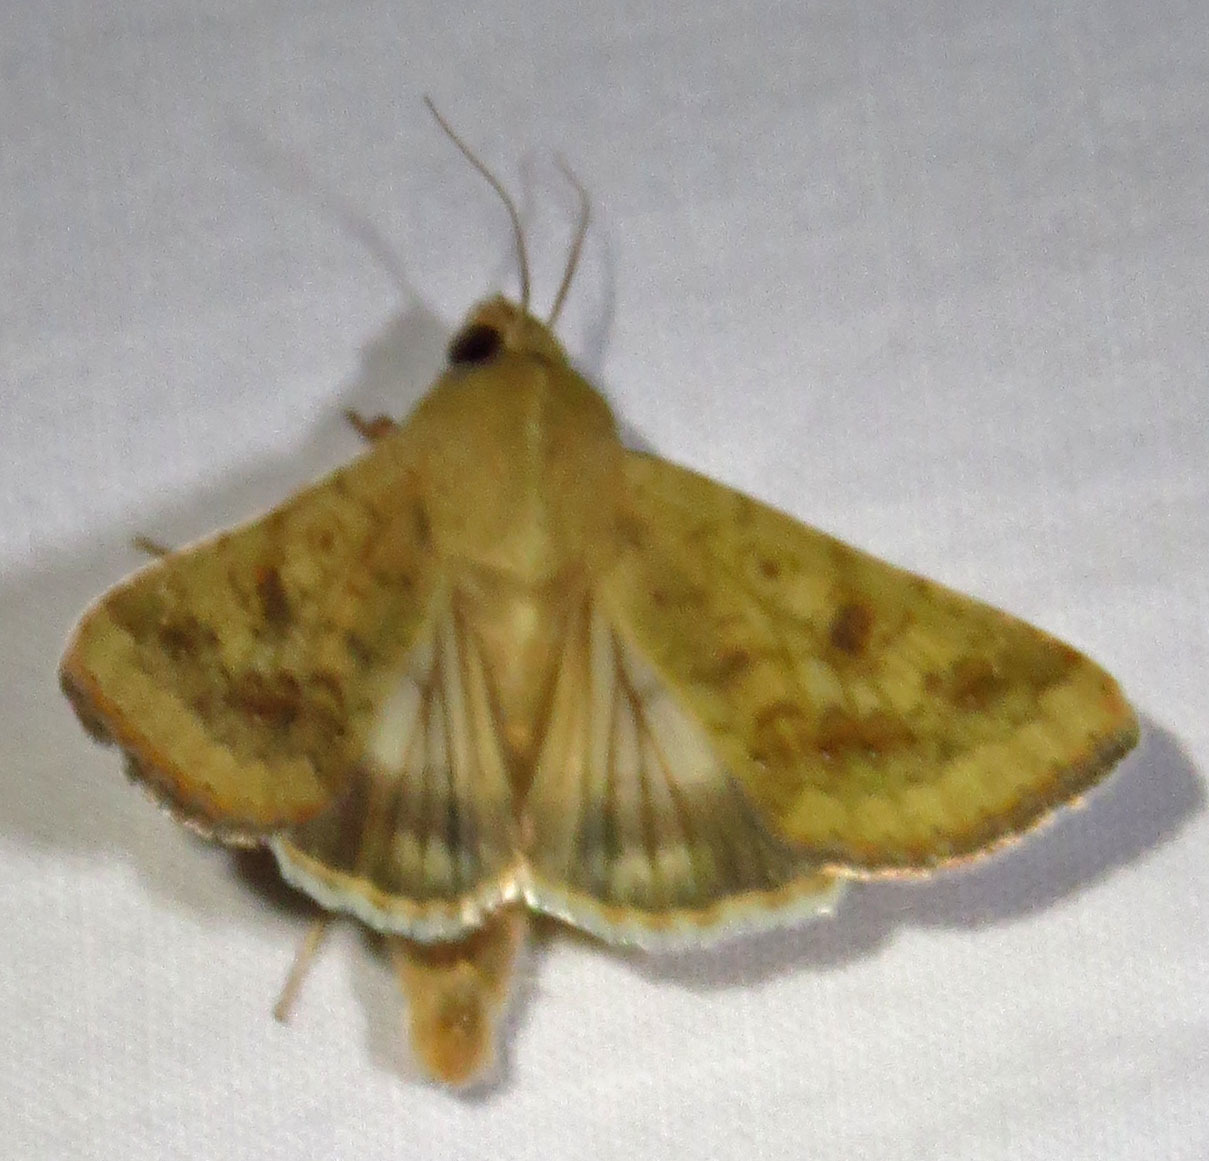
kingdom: Animalia
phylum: Arthropoda
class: Insecta
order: Lepidoptera
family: Noctuidae
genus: Helicoverpa
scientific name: Helicoverpa zea
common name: Bollworm
